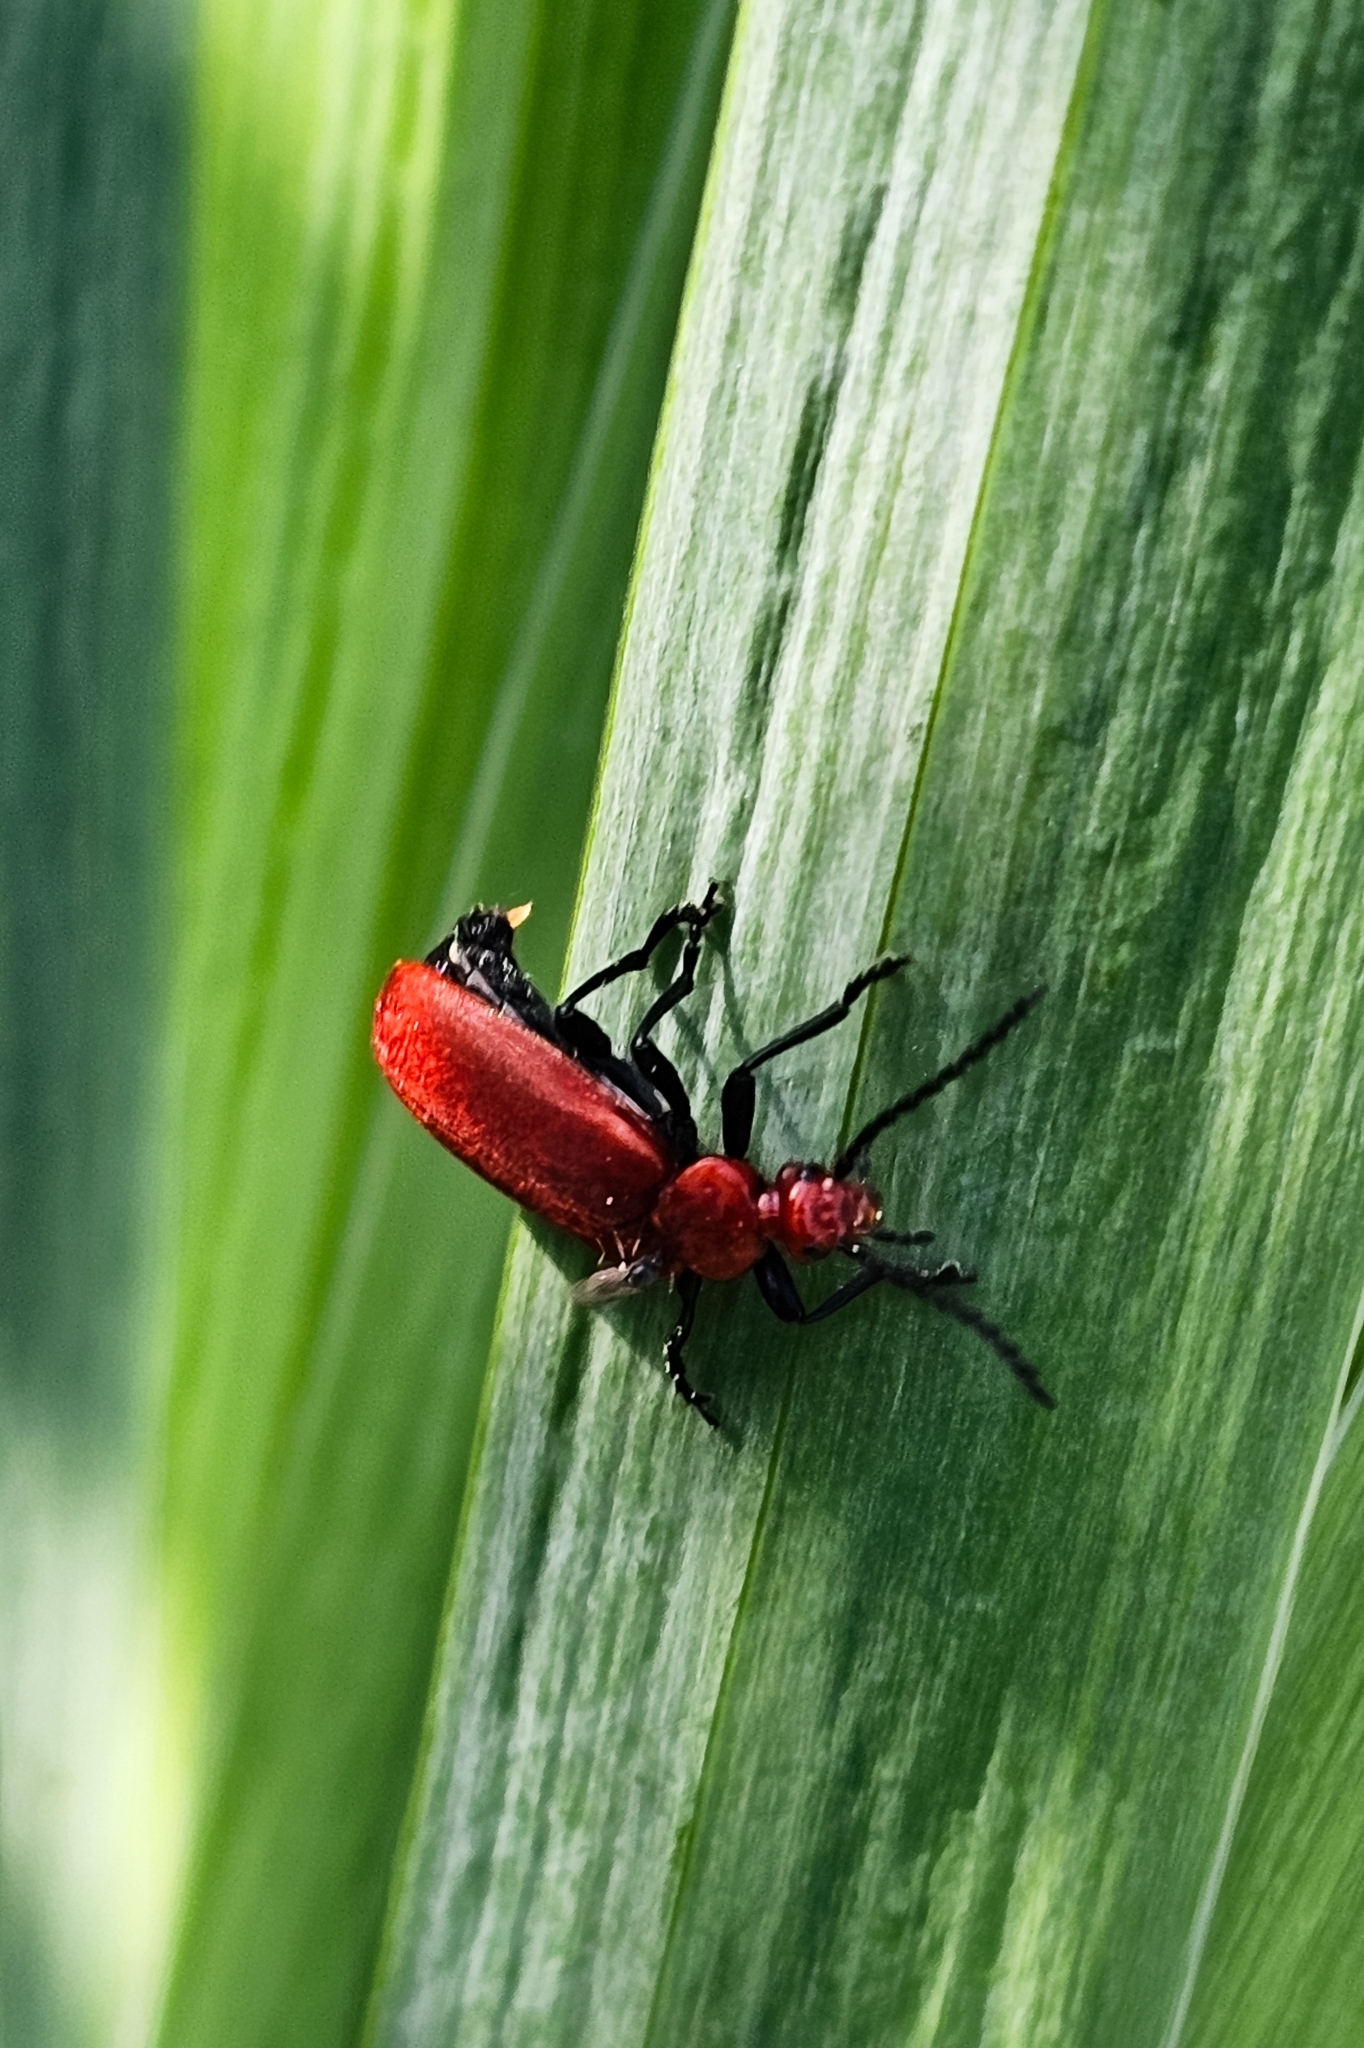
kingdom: Animalia
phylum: Arthropoda
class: Insecta
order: Coleoptera
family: Pyrochroidae
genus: Pyrochroa
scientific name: Pyrochroa serraticornis
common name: Red-headed cardinal beetle
